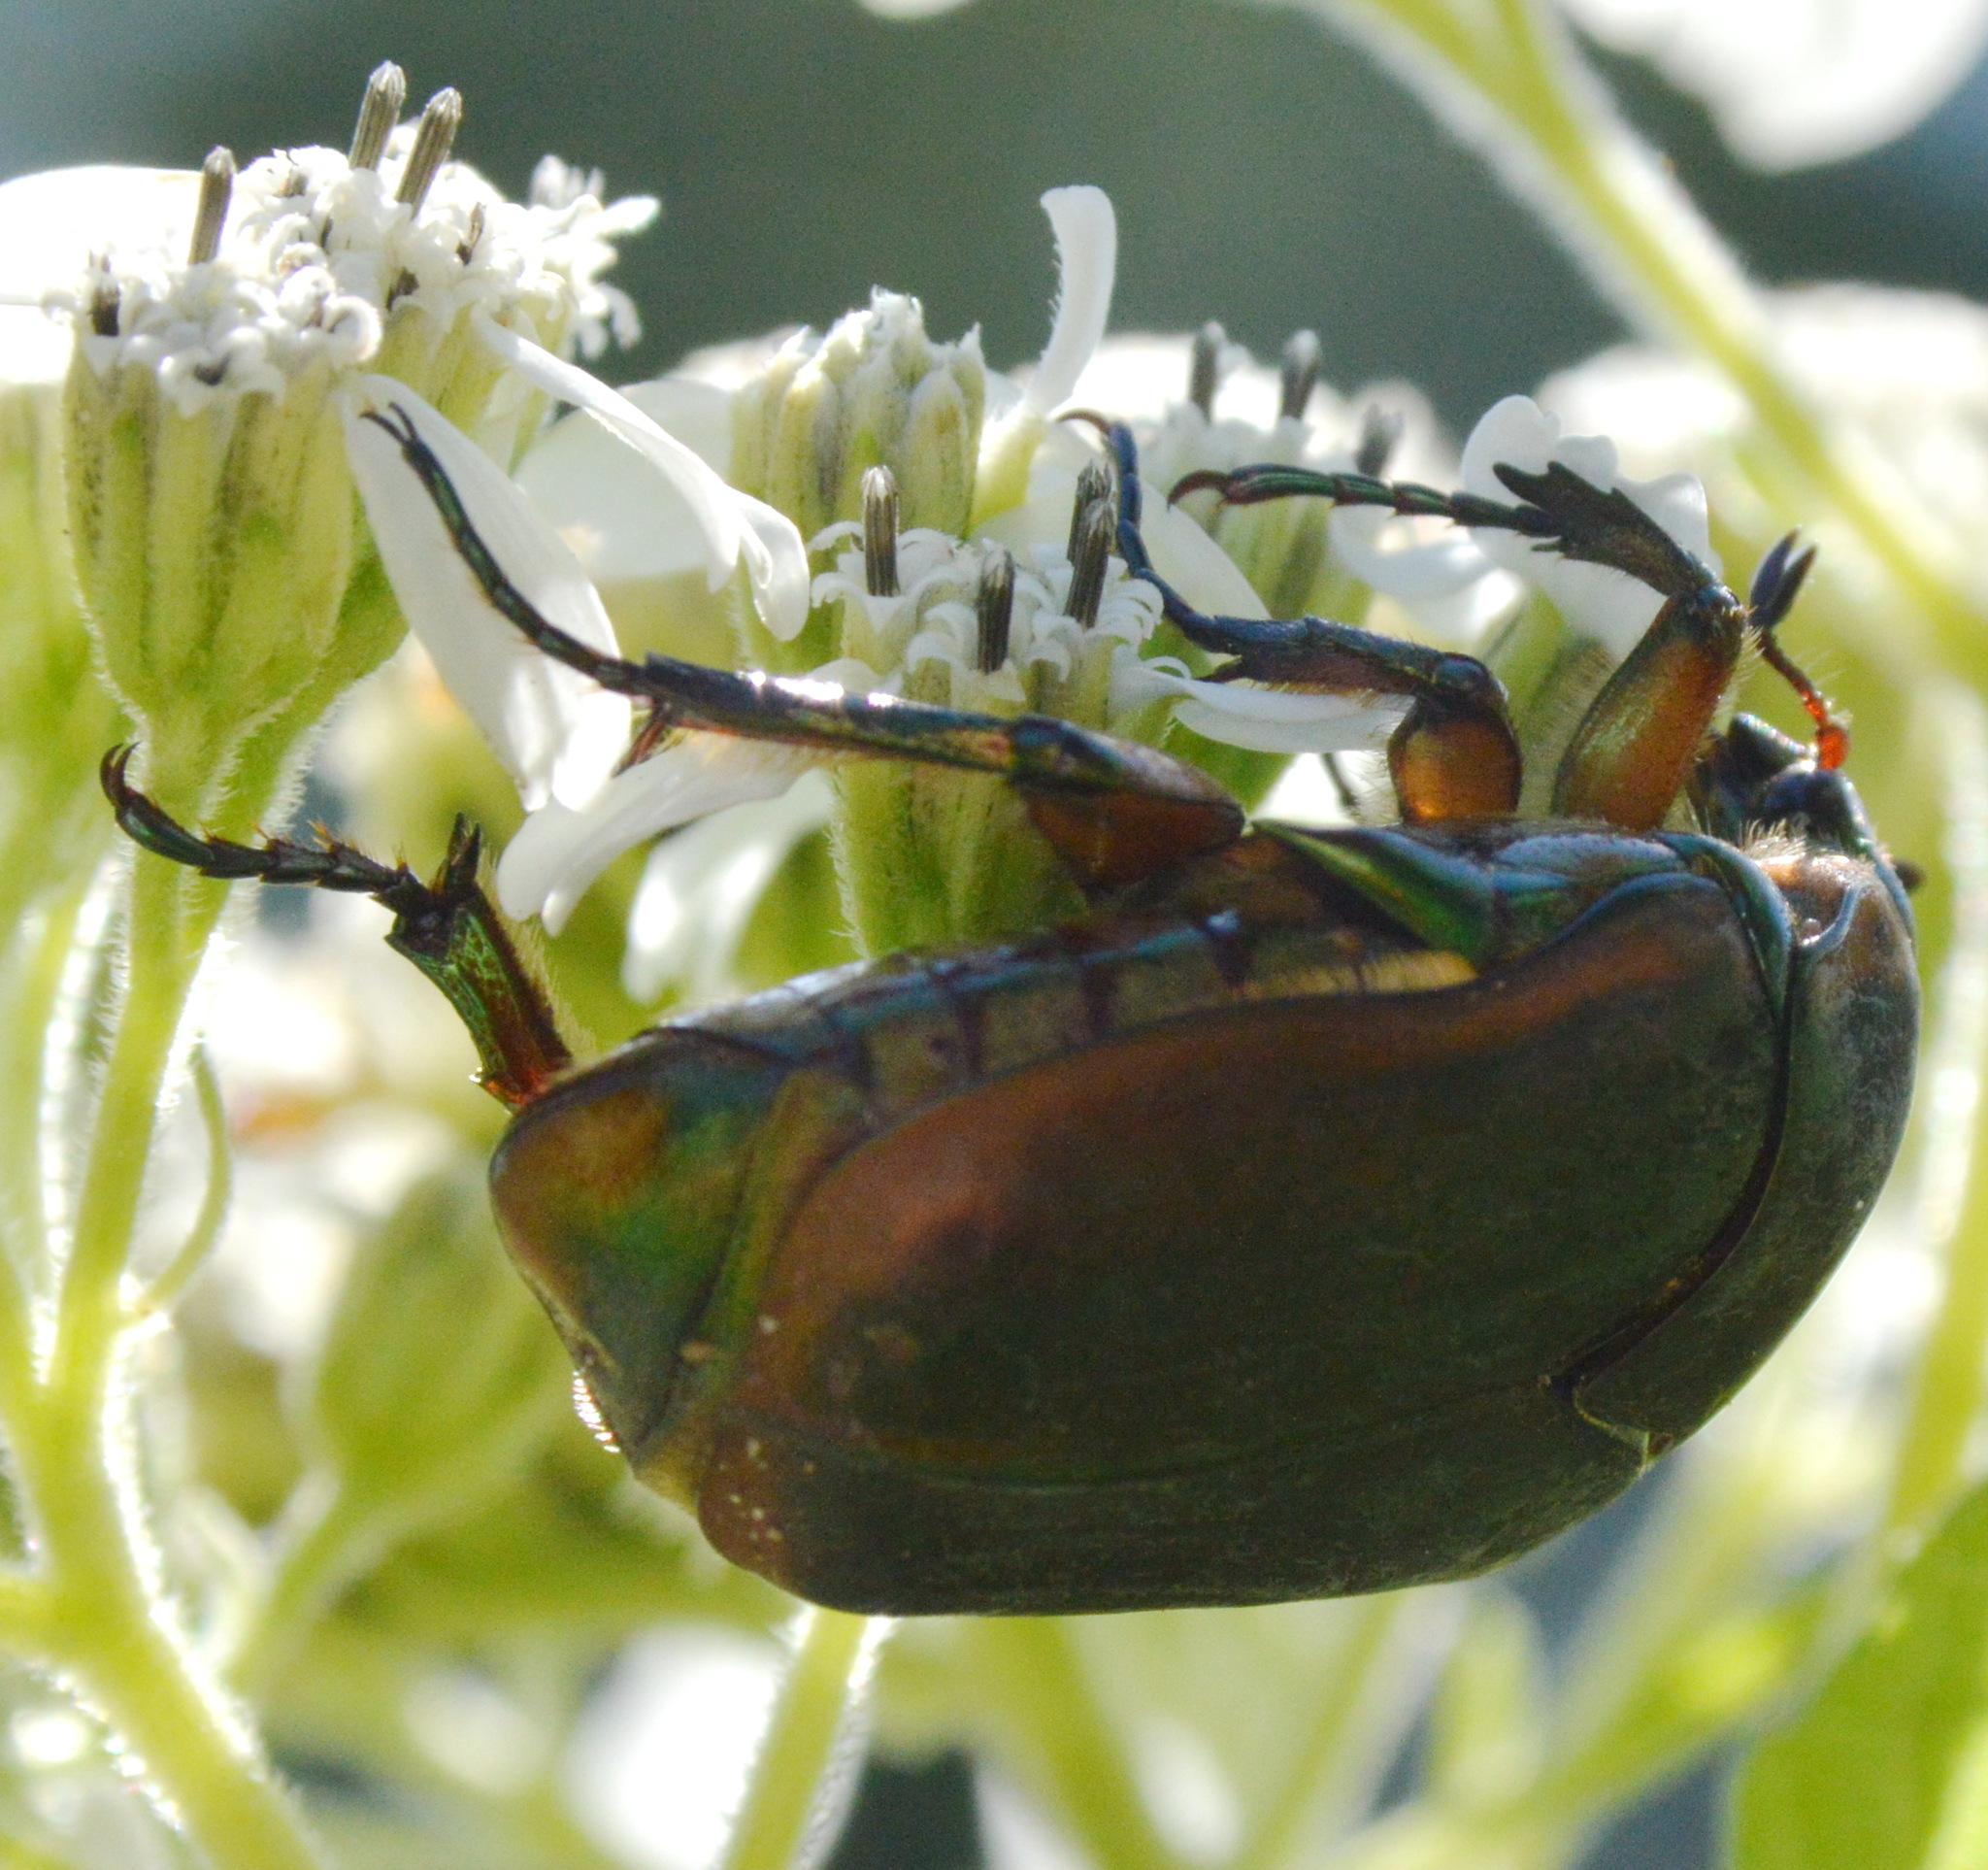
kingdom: Animalia
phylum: Arthropoda
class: Insecta
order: Coleoptera
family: Scarabaeidae
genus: Cotinis
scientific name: Cotinis nitida
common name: Common green june beetle
